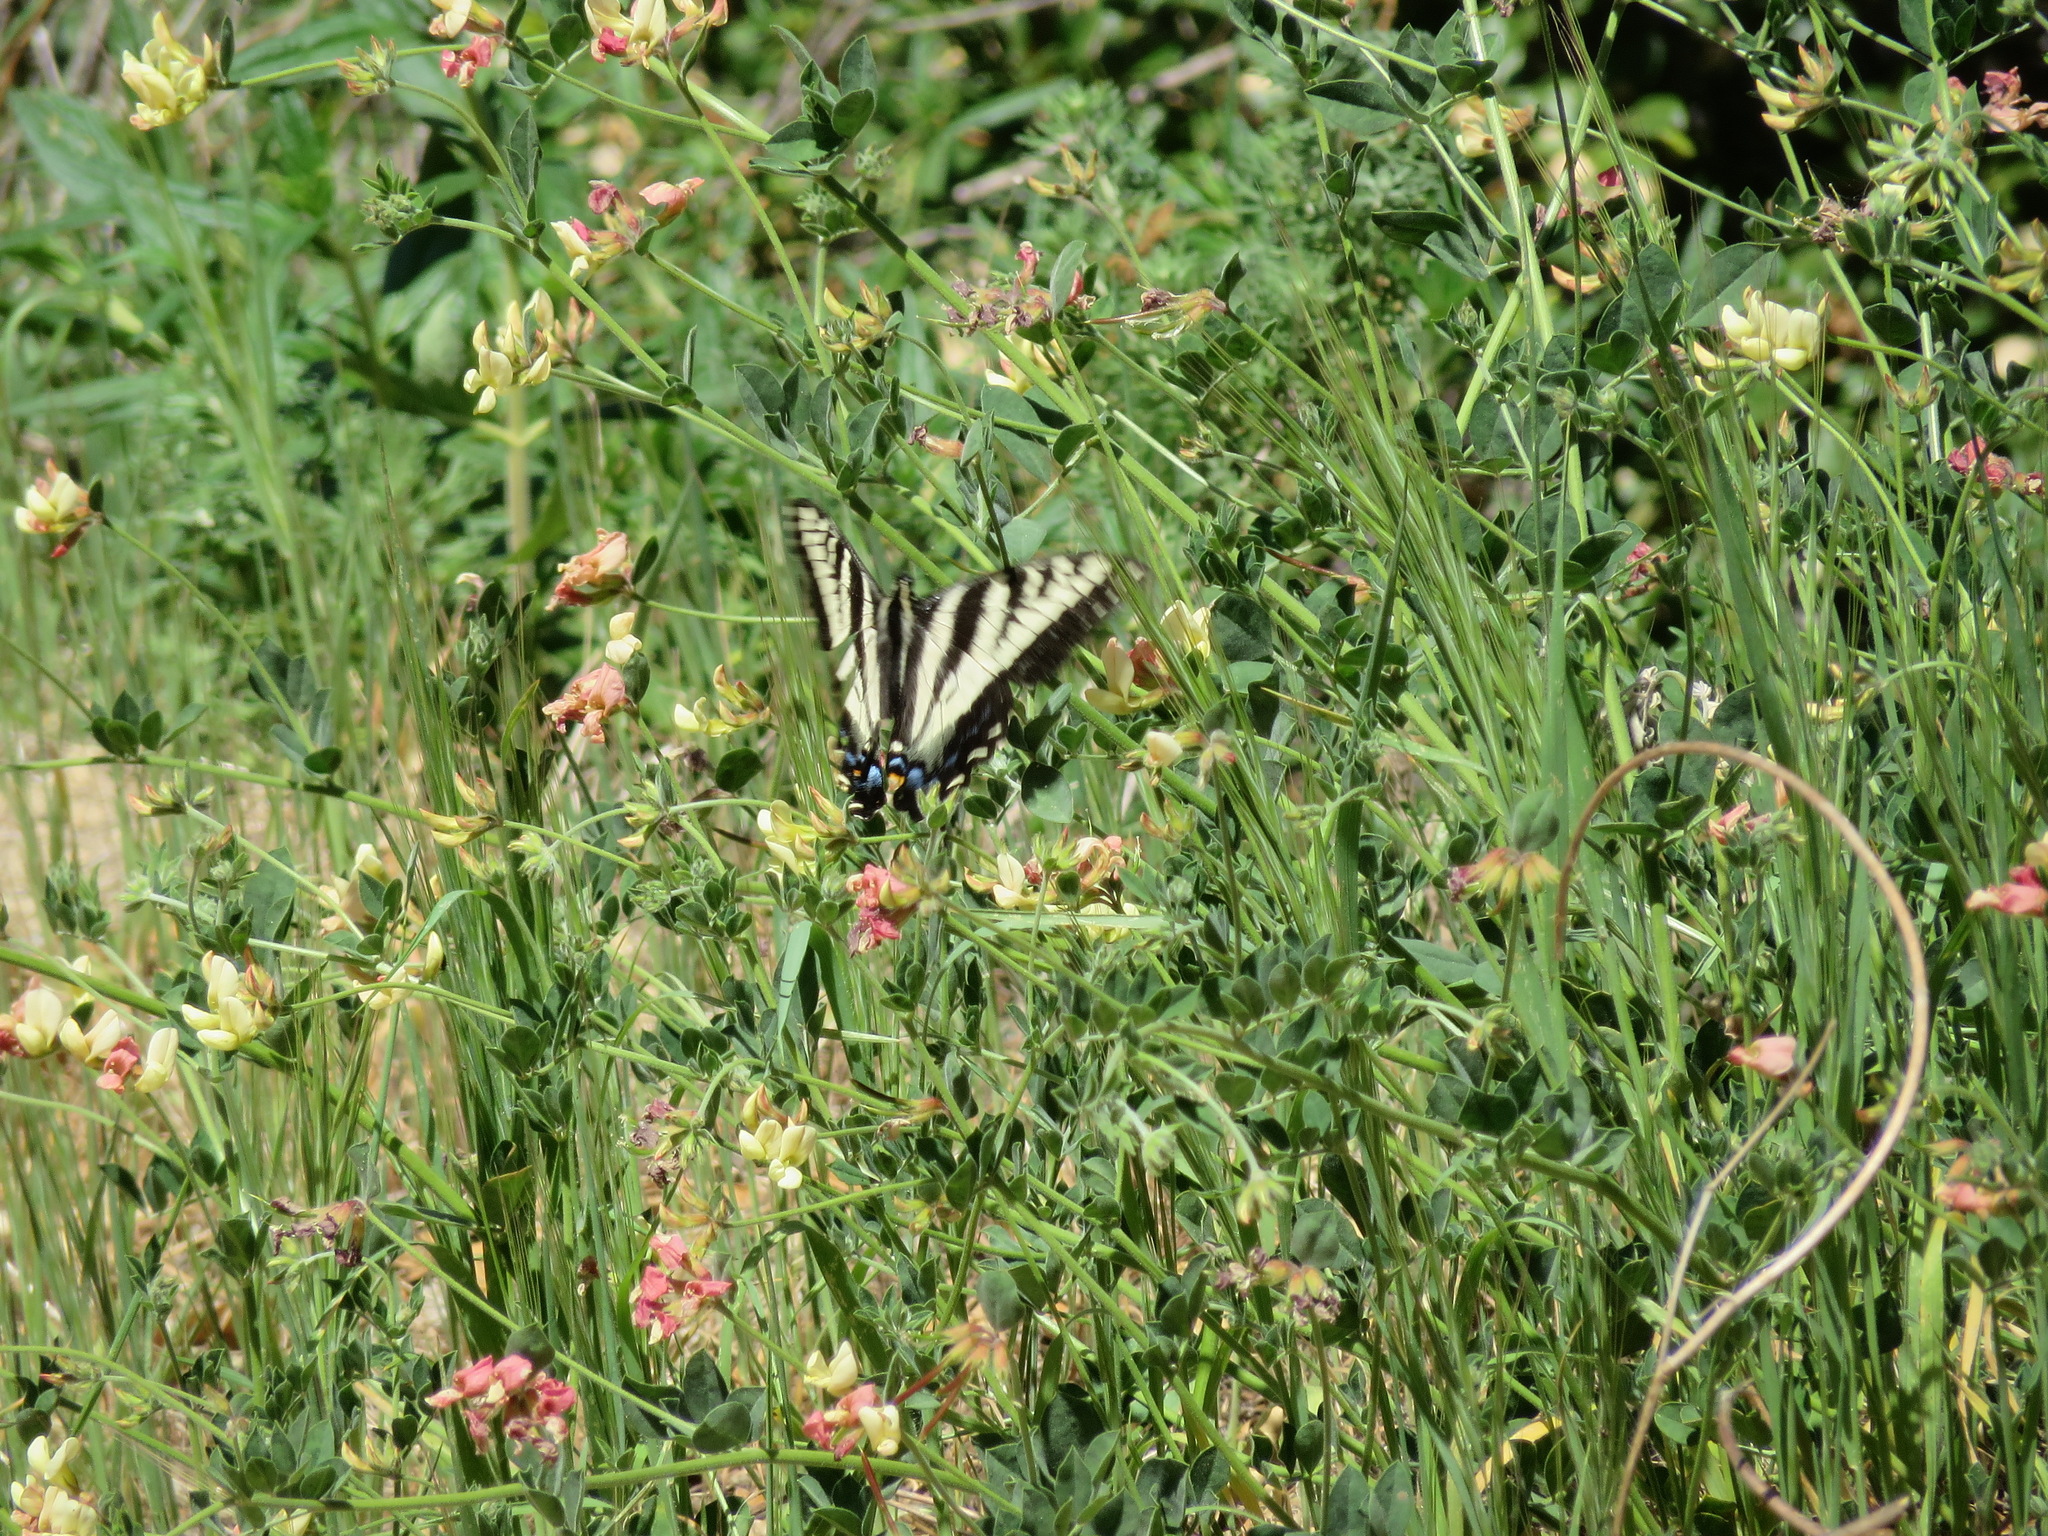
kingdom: Animalia
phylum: Arthropoda
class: Insecta
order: Lepidoptera
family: Papilionidae
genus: Papilio
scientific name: Papilio eurymedon
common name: Pale tiger swallowtail
